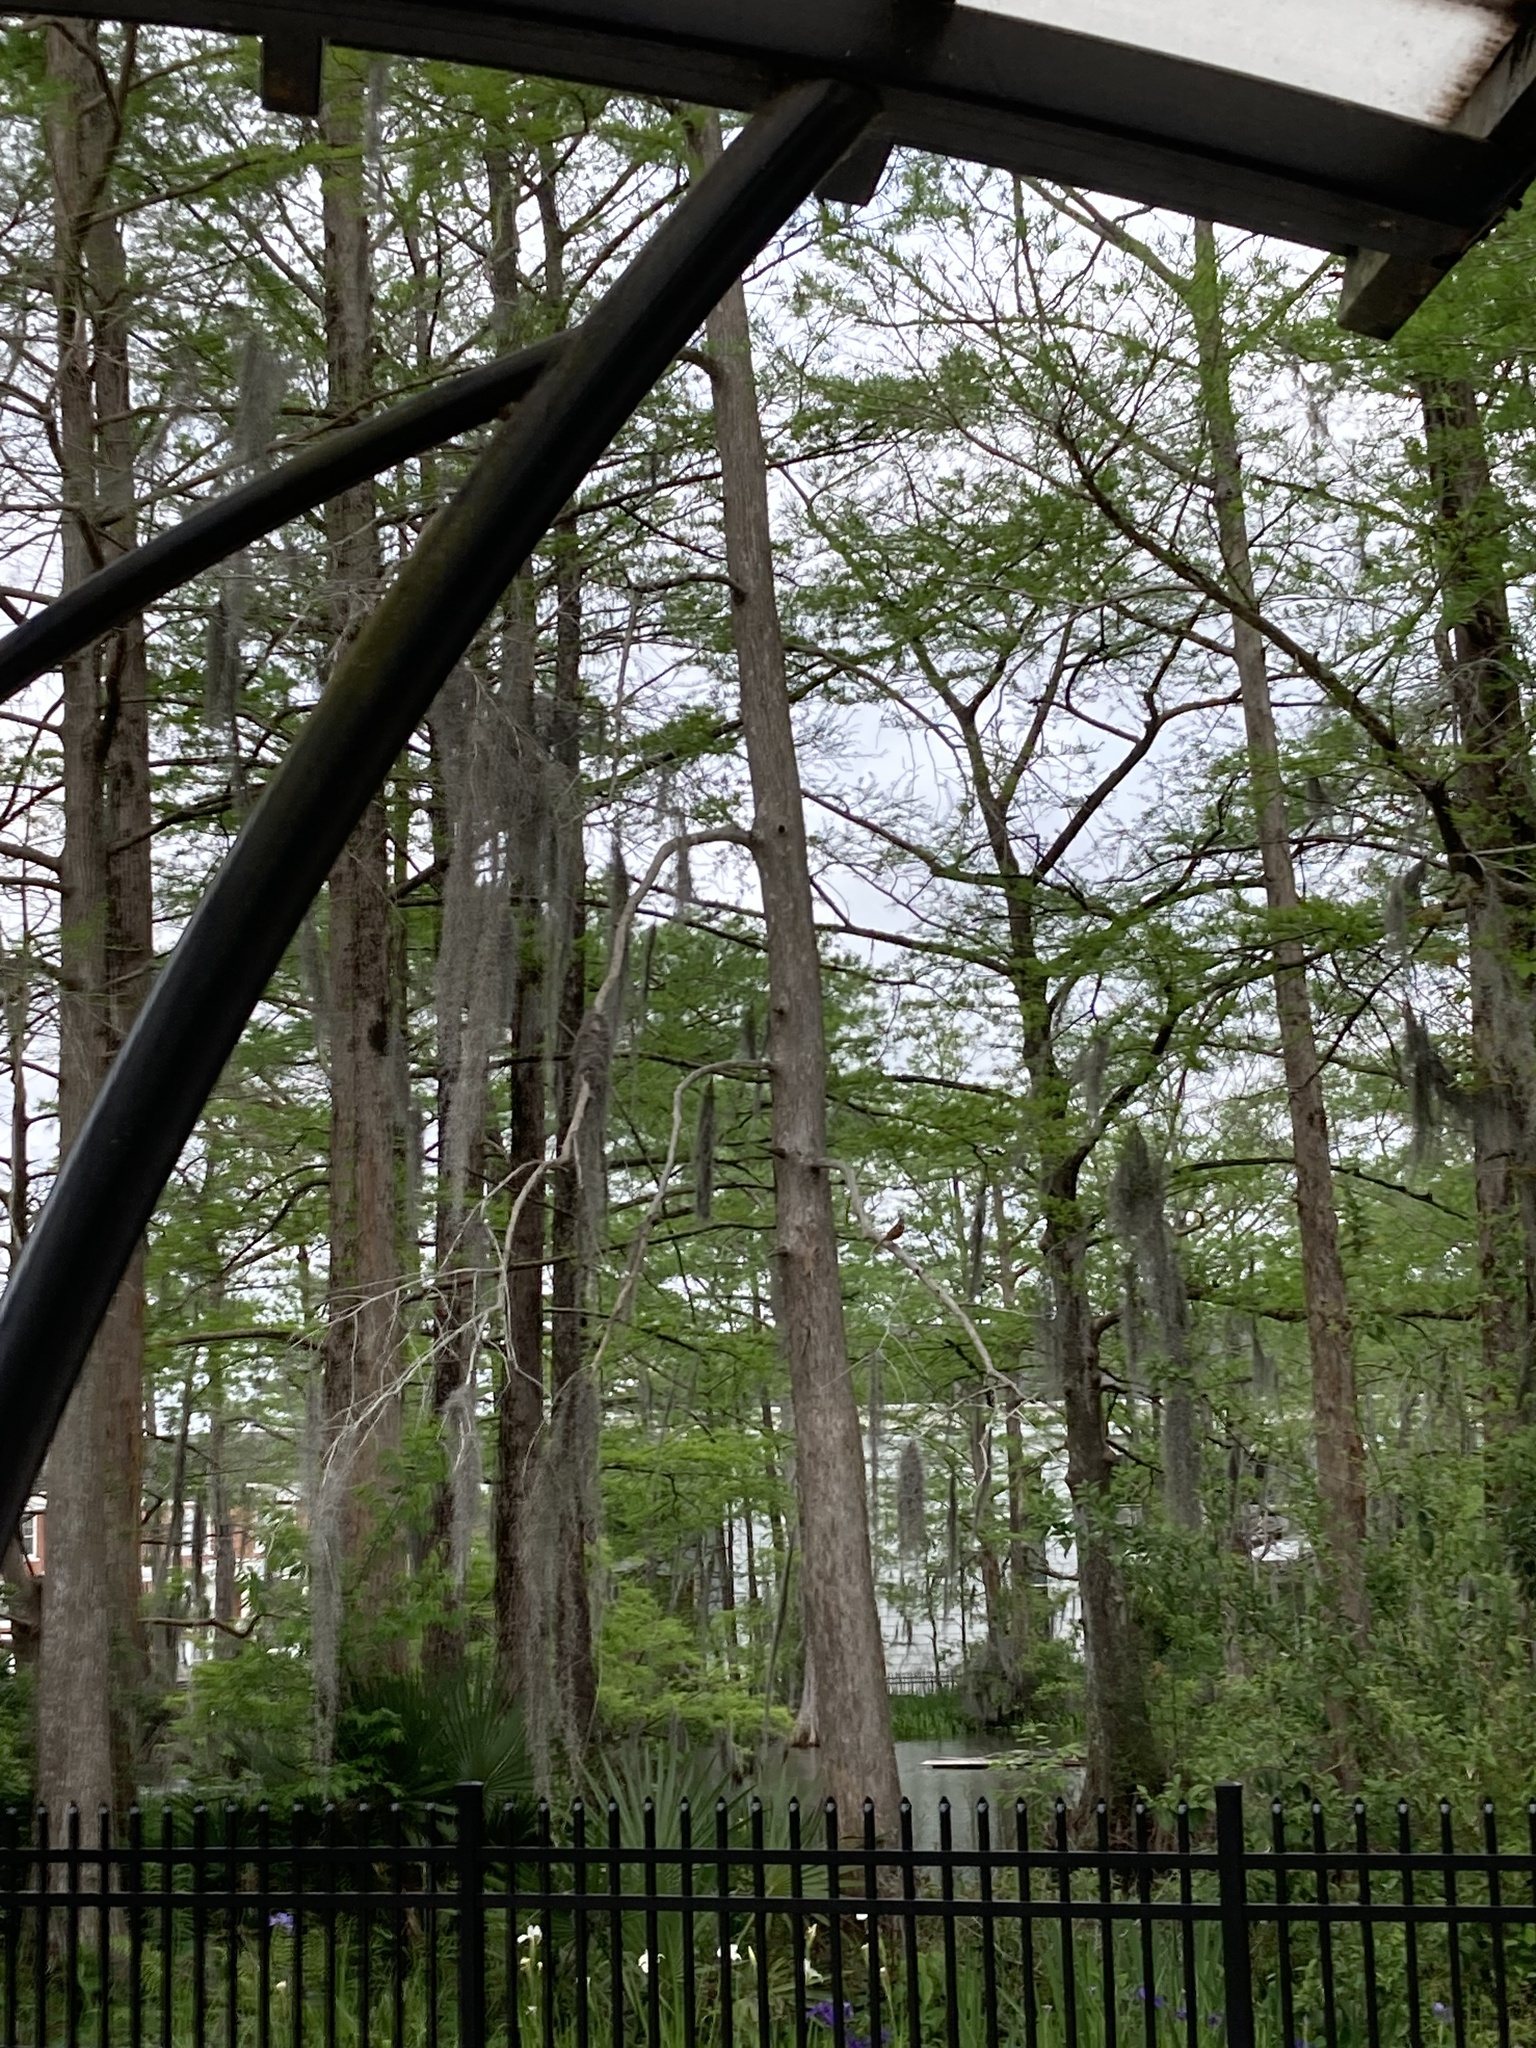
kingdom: Animalia
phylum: Chordata
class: Aves
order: Passeriformes
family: Mimidae
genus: Toxostoma
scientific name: Toxostoma rufum
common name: Brown thrasher
